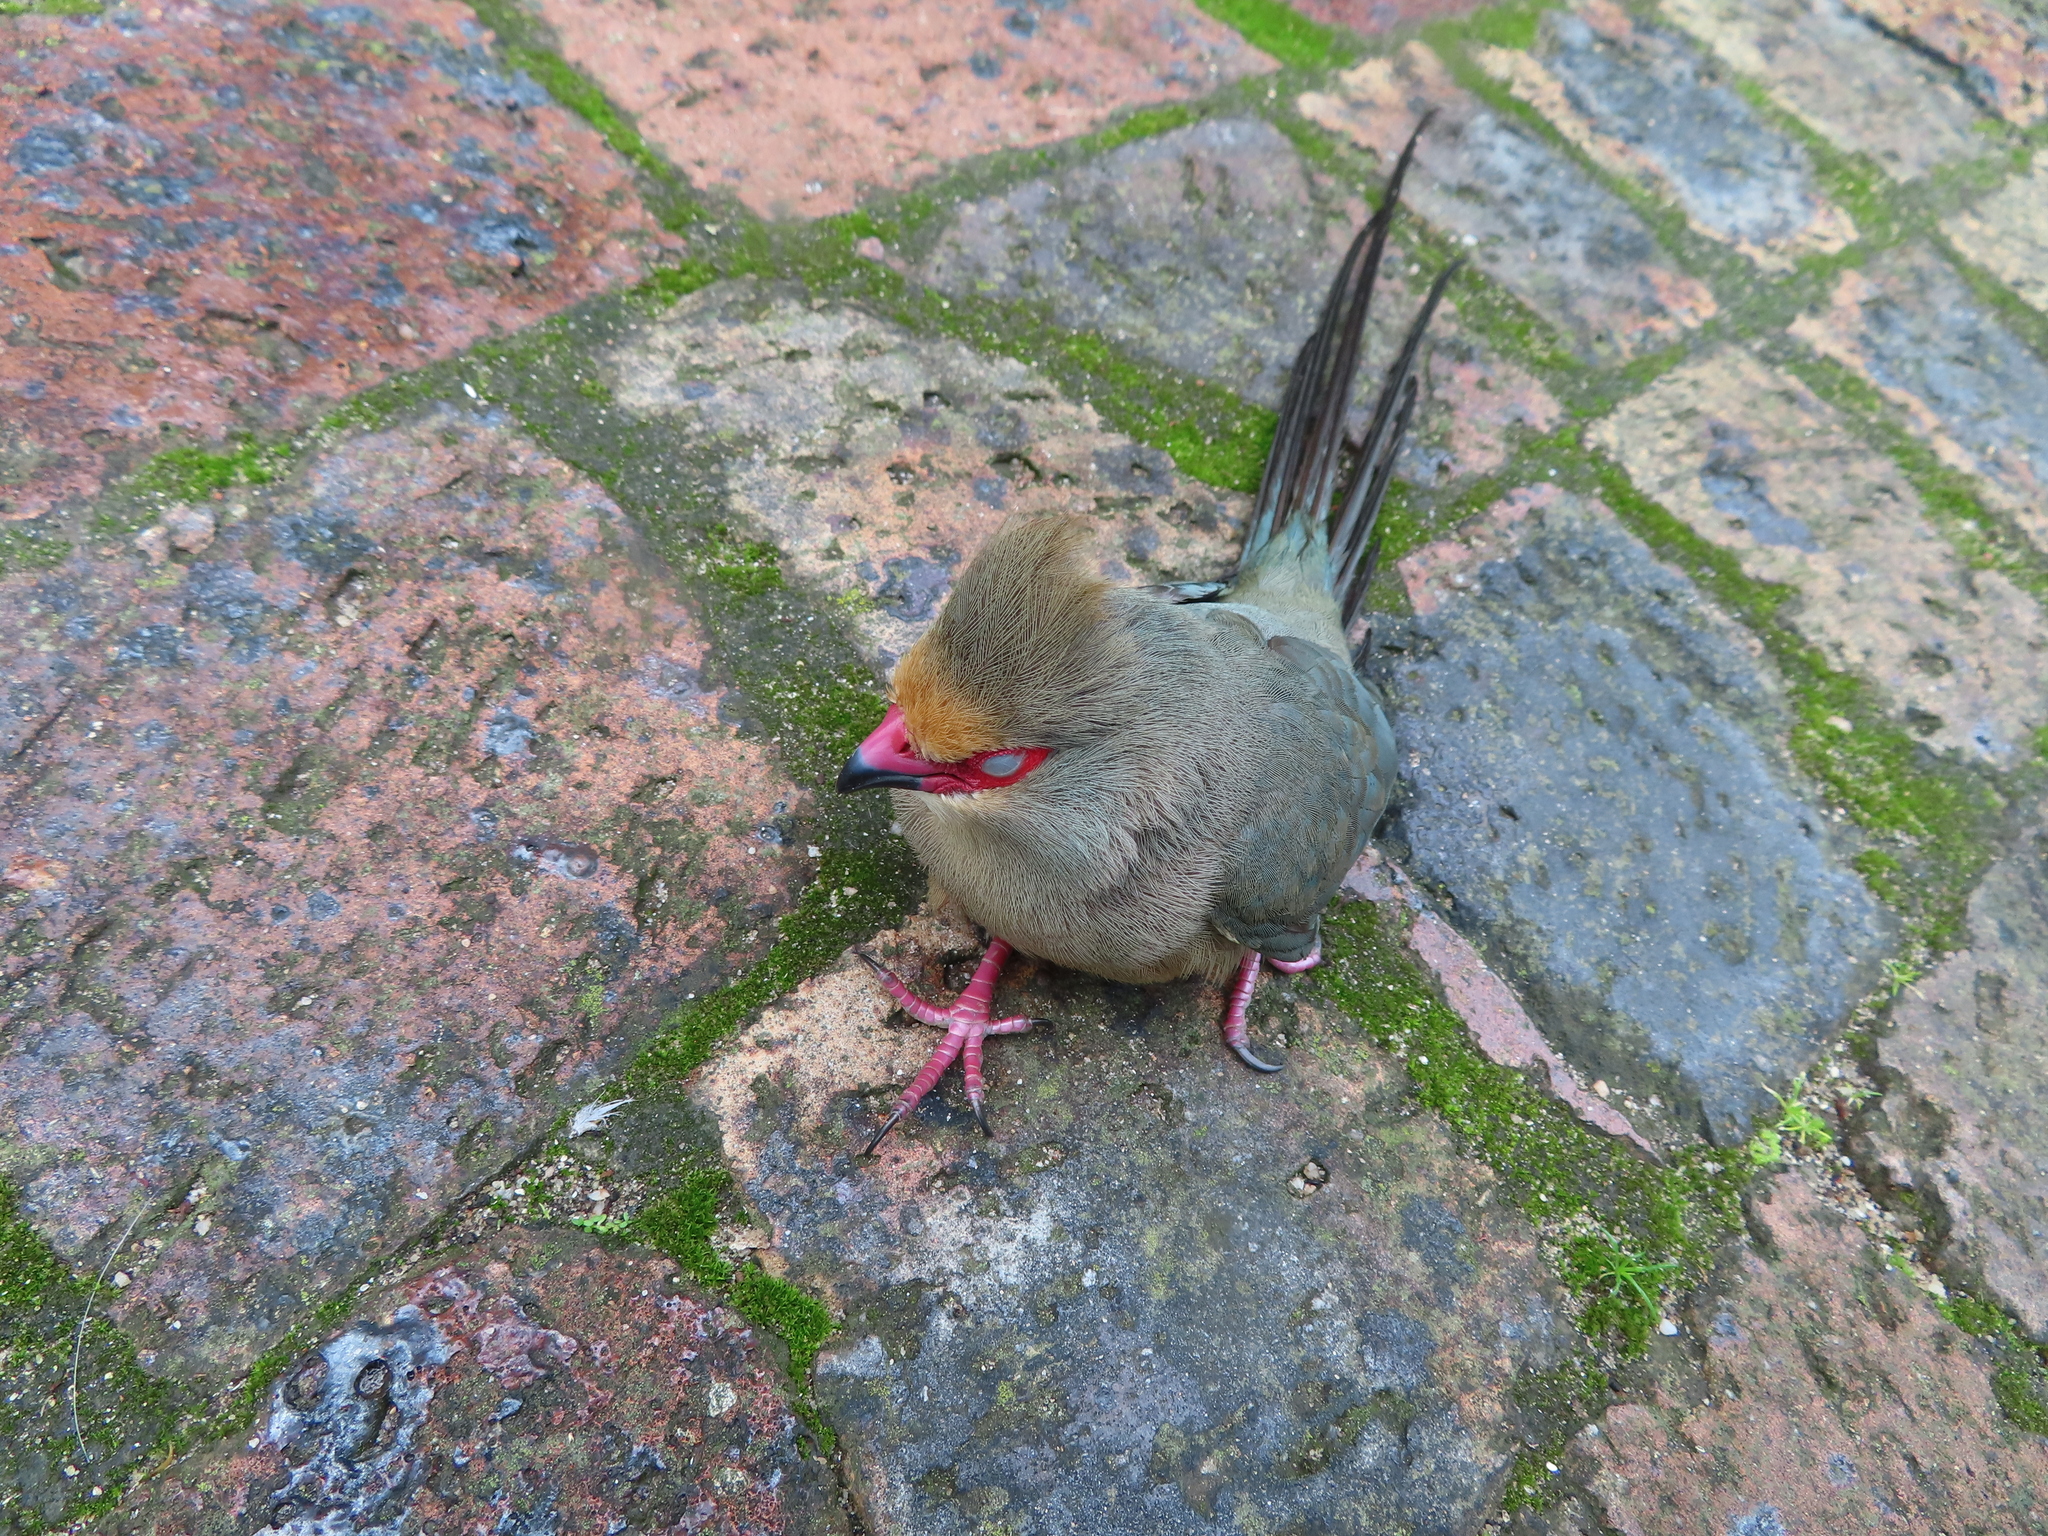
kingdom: Animalia
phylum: Chordata
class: Aves
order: Coliiformes
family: Coliidae
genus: Urocolius
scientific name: Urocolius indicus
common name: Red-faced mousebird
